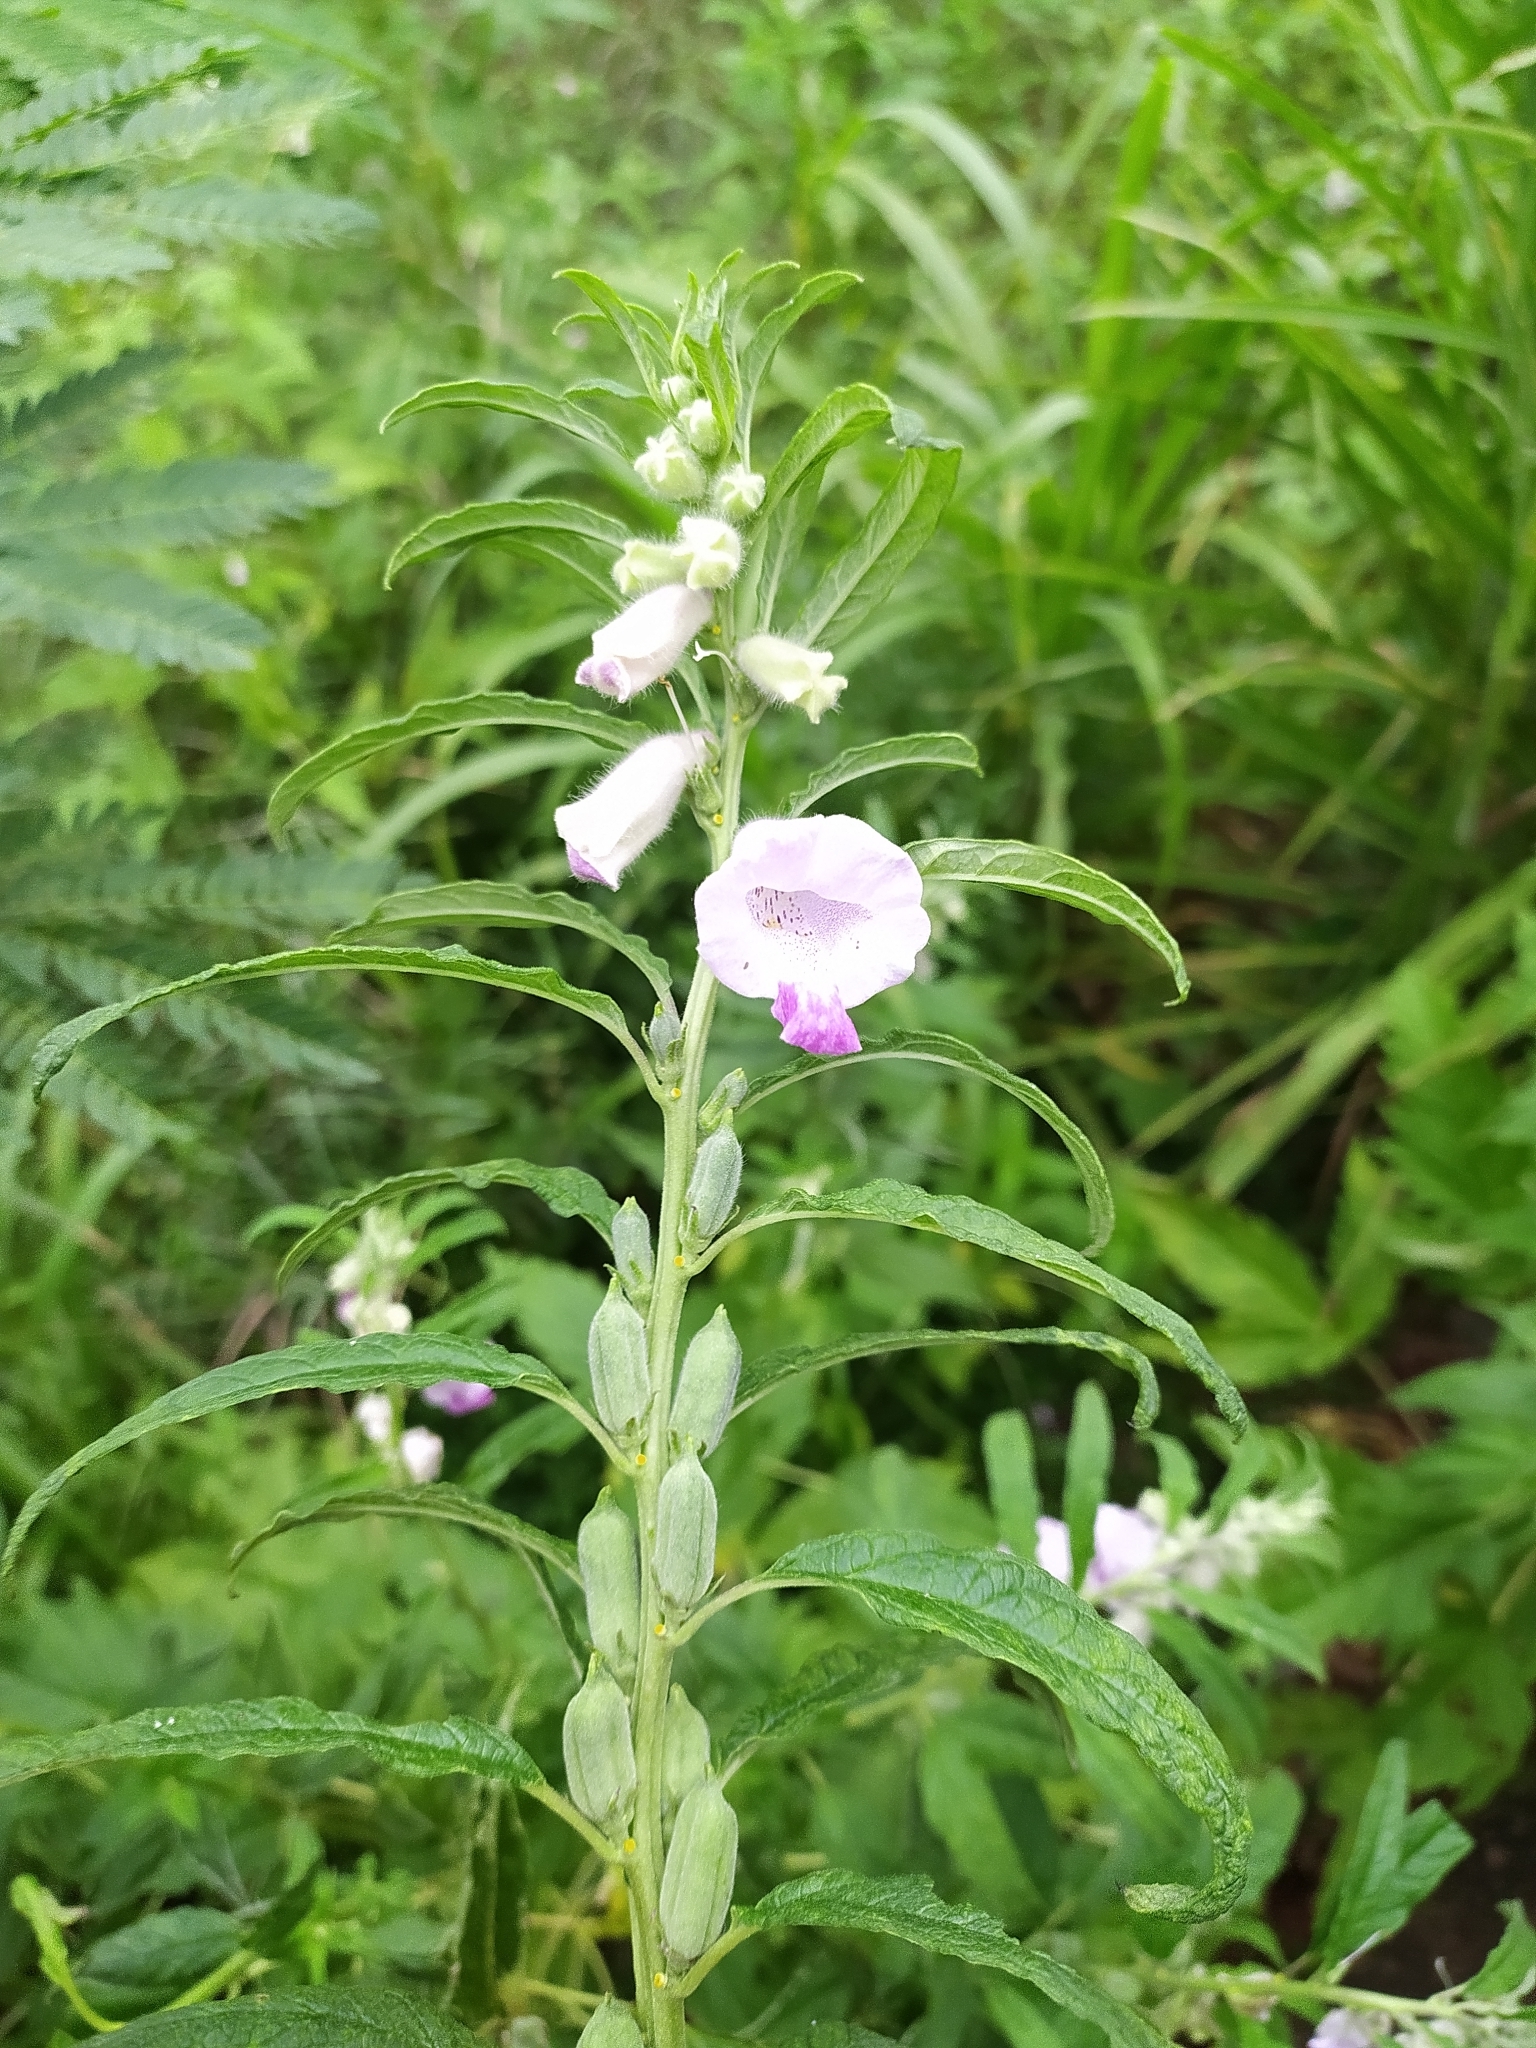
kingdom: Plantae
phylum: Tracheophyta
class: Magnoliopsida
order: Lamiales
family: Pedaliaceae
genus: Sesamum
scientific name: Sesamum indicum
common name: Sesame
